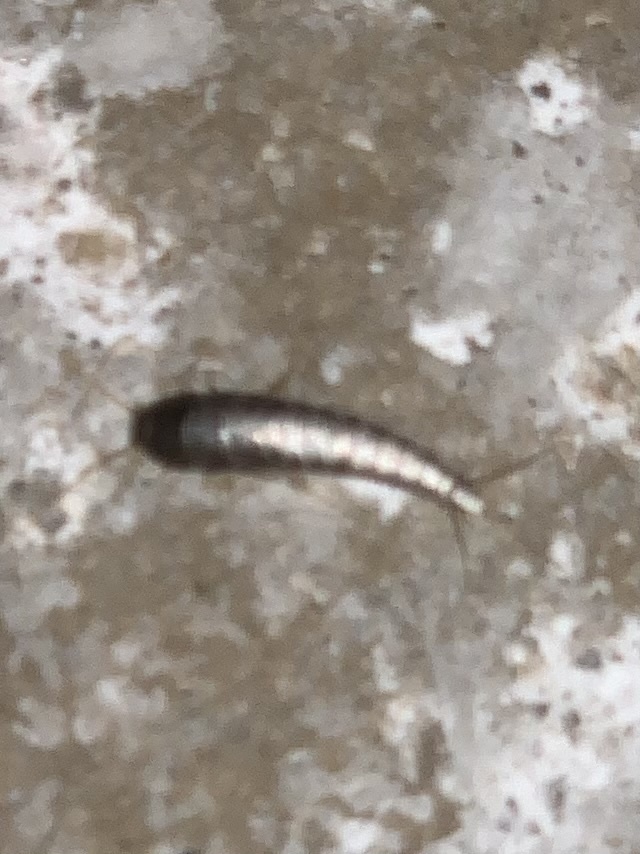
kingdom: Animalia
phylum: Arthropoda
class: Insecta
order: Zygentoma
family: Lepismatidae
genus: Lepisma
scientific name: Lepisma saccharinum
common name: Silverfish
